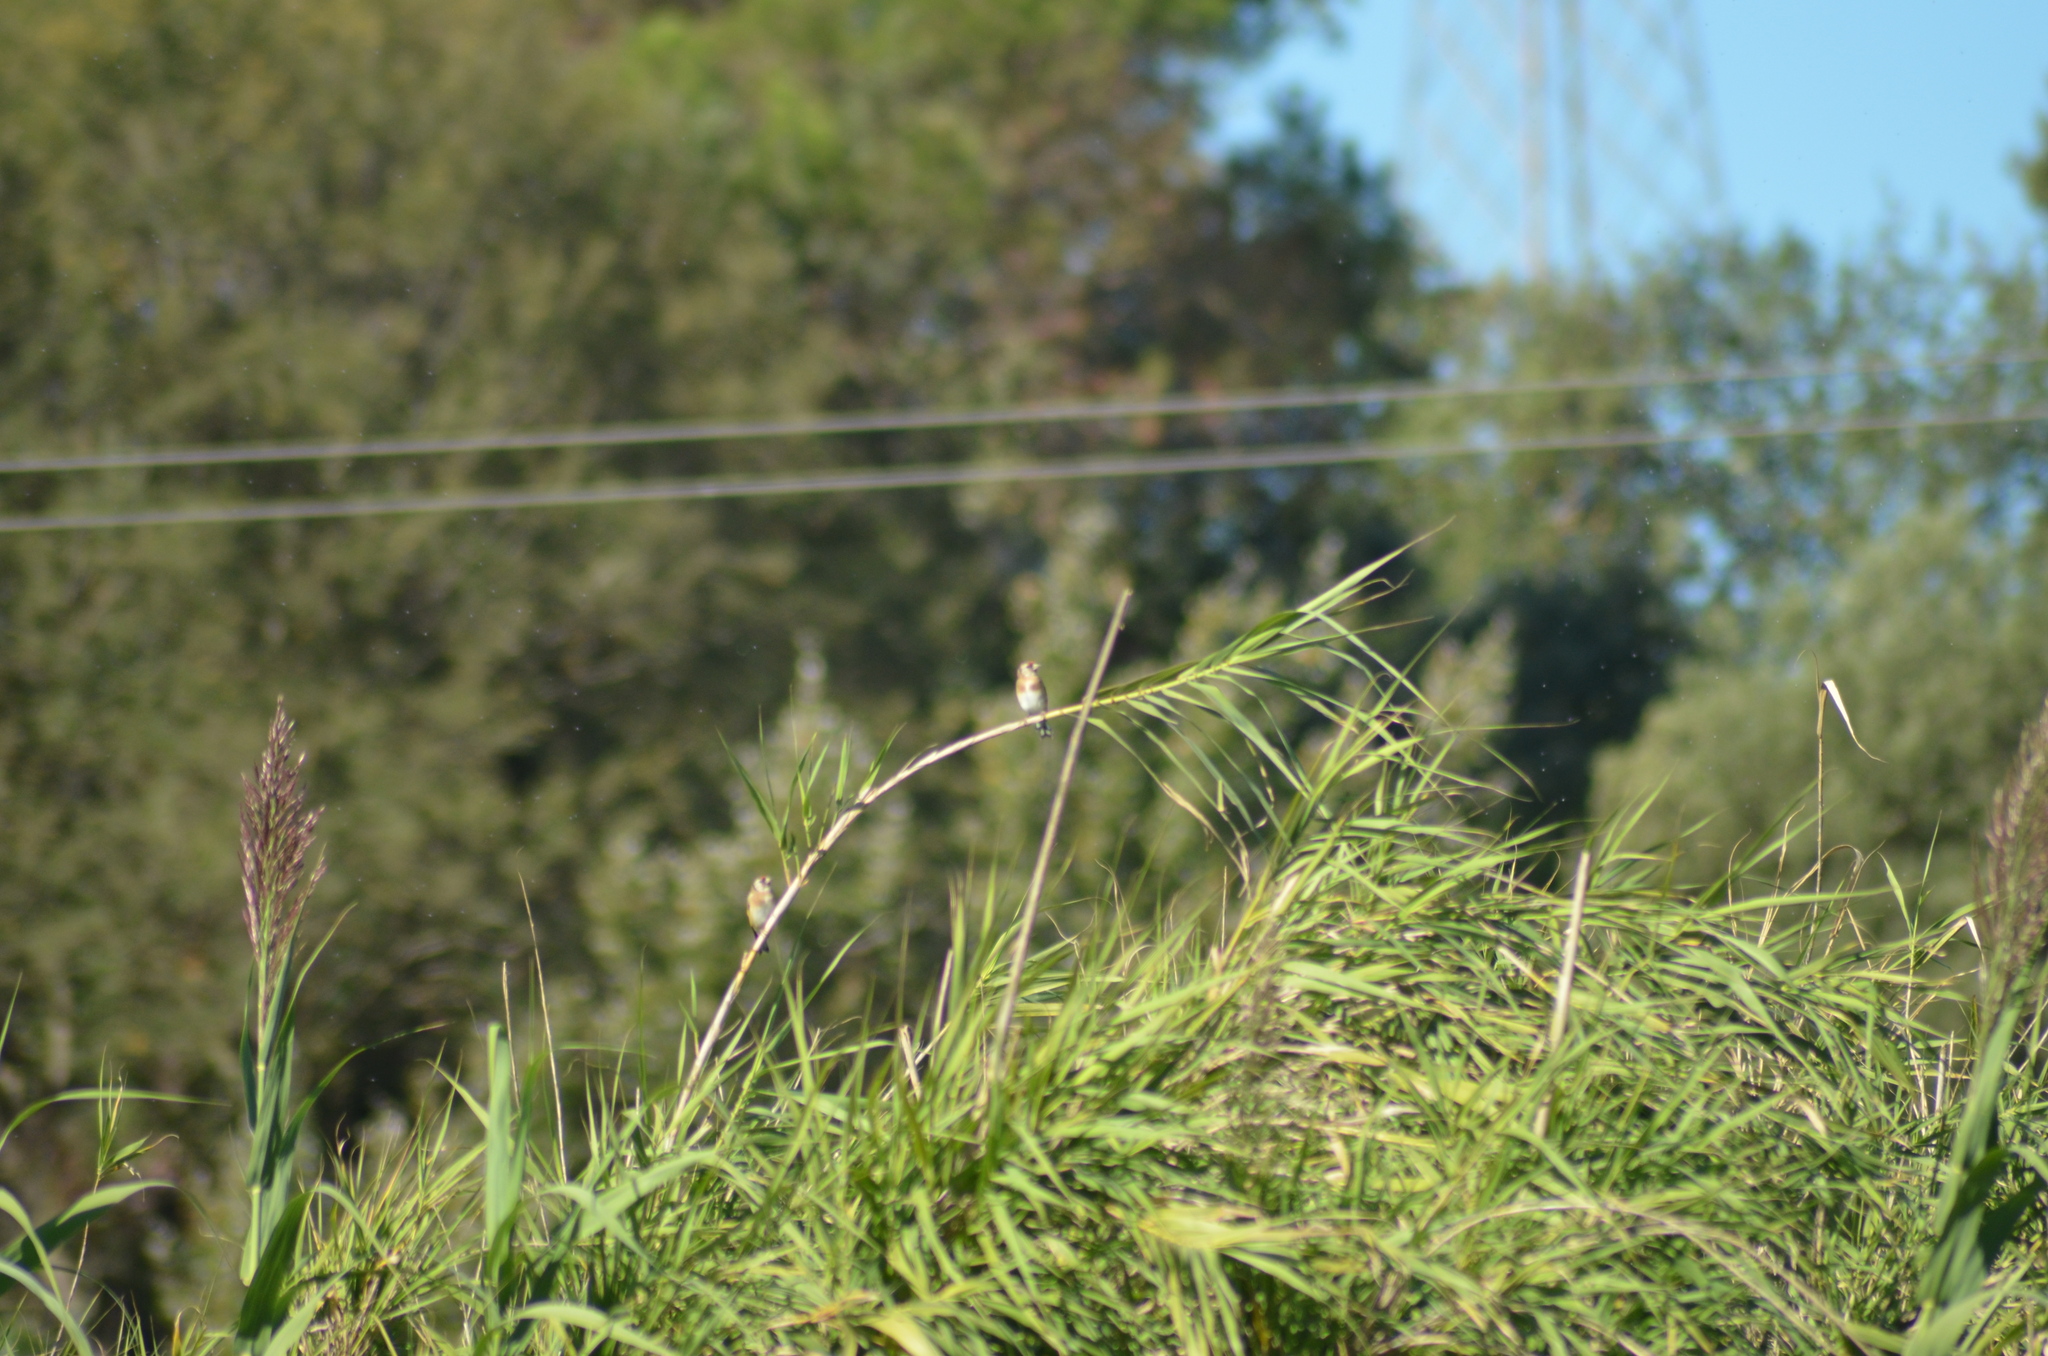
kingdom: Animalia
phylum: Chordata
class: Aves
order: Passeriformes
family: Fringillidae
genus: Carduelis
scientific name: Carduelis carduelis
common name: European goldfinch
